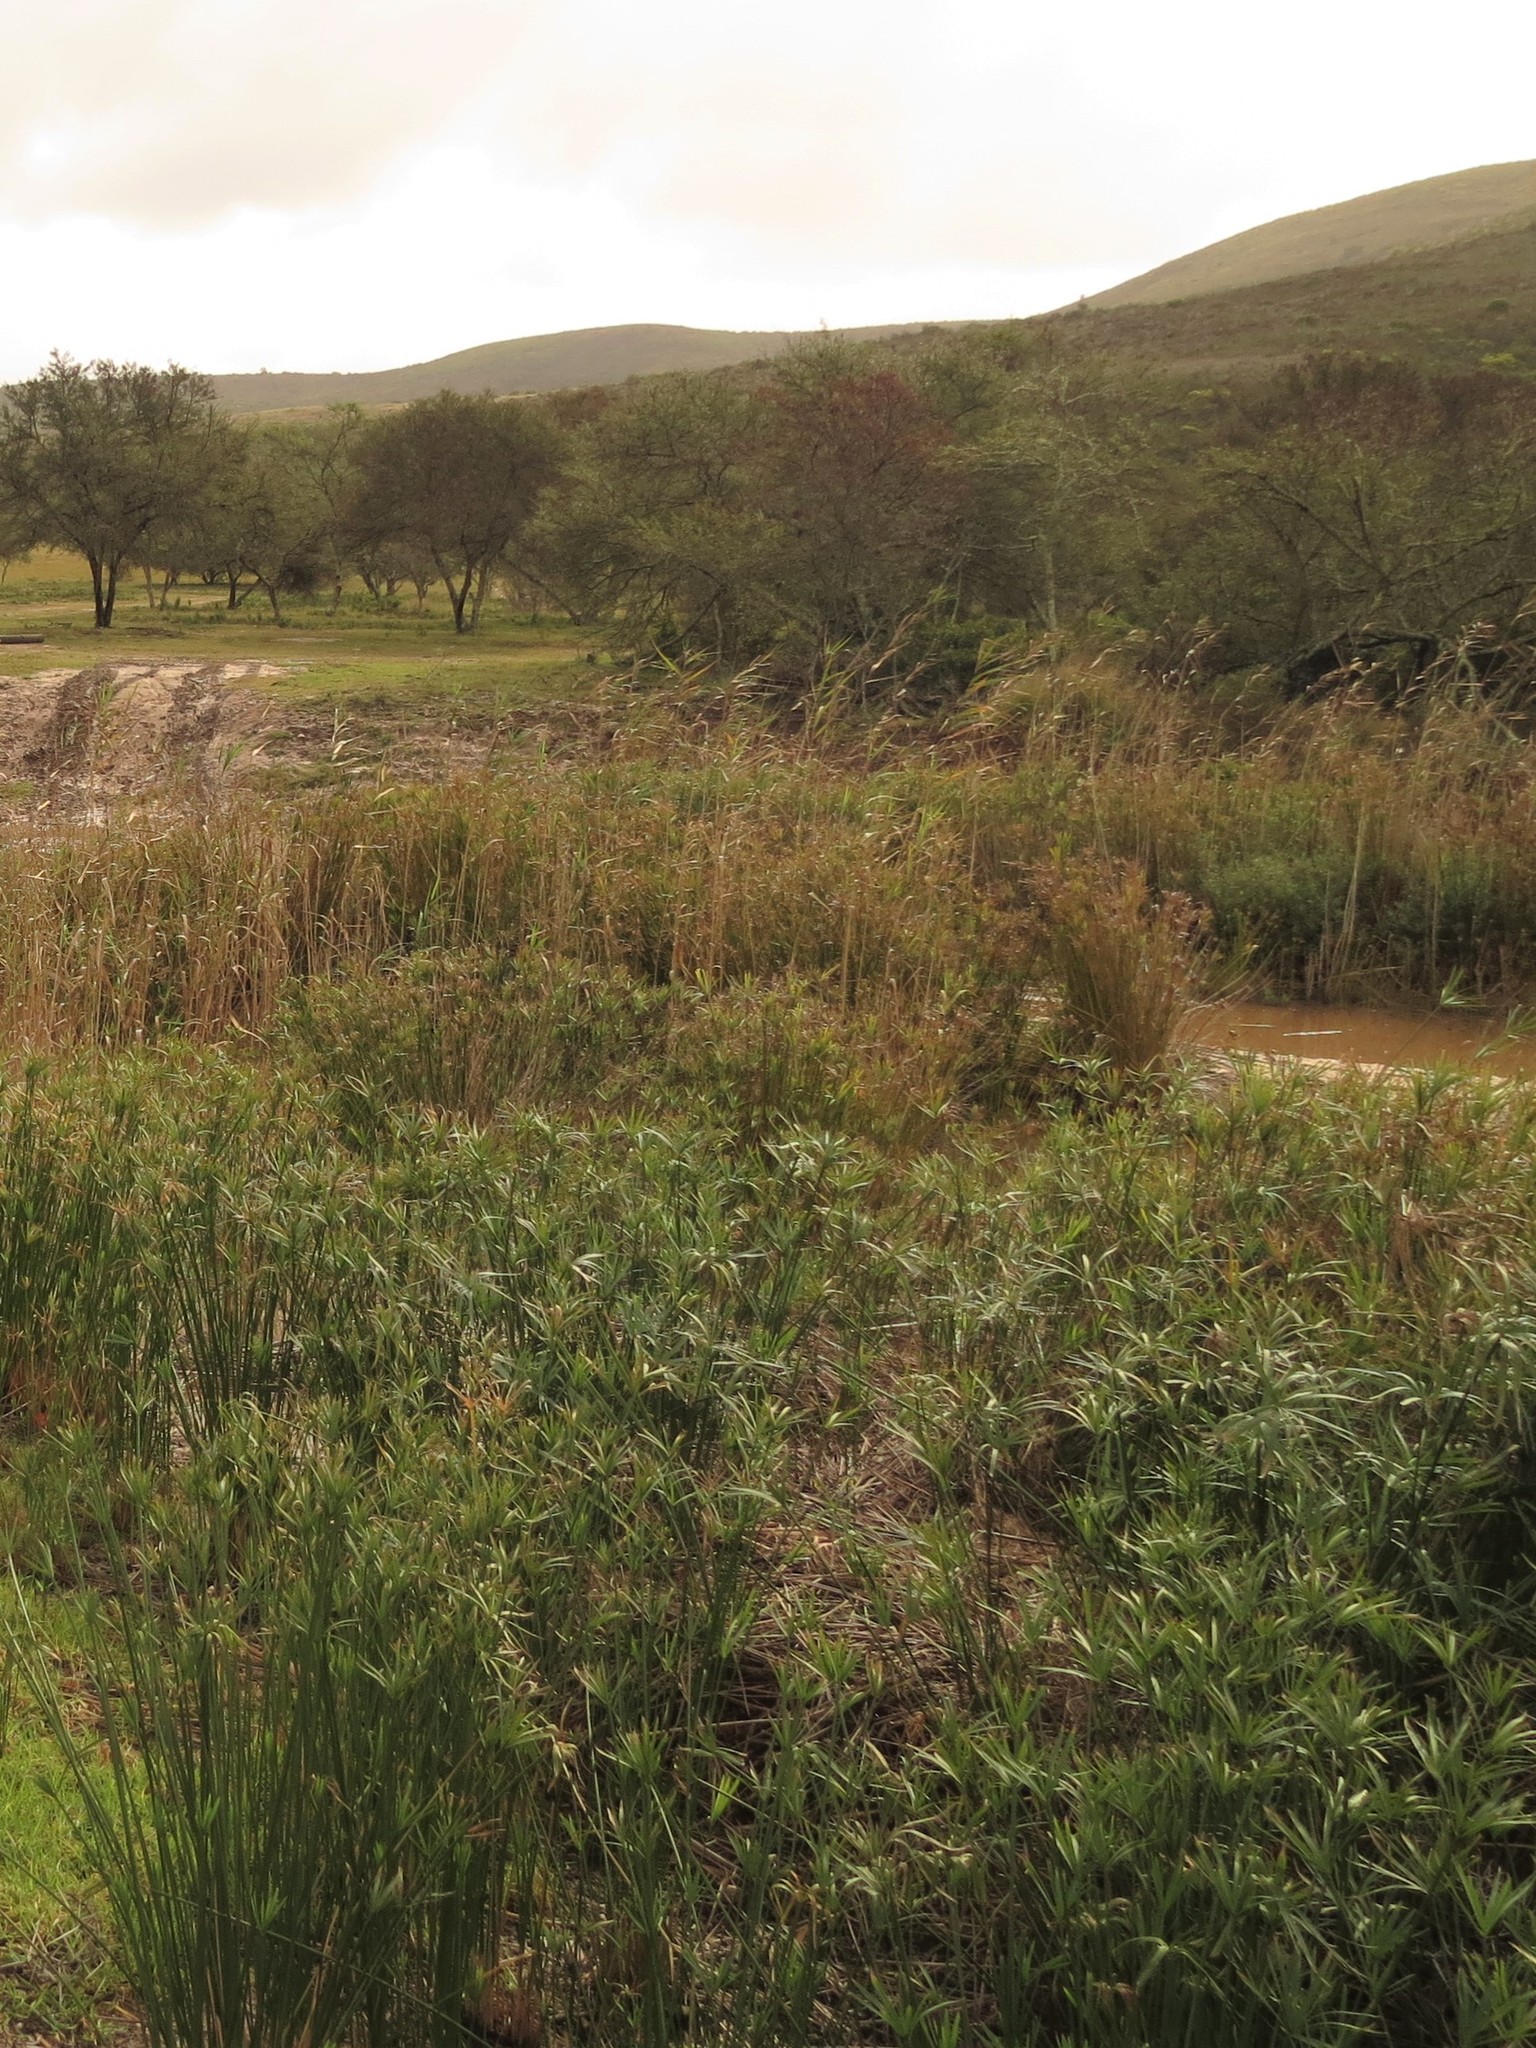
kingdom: Plantae
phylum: Tracheophyta
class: Liliopsida
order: Poales
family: Cyperaceae
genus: Cyperus
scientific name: Cyperus textilis
